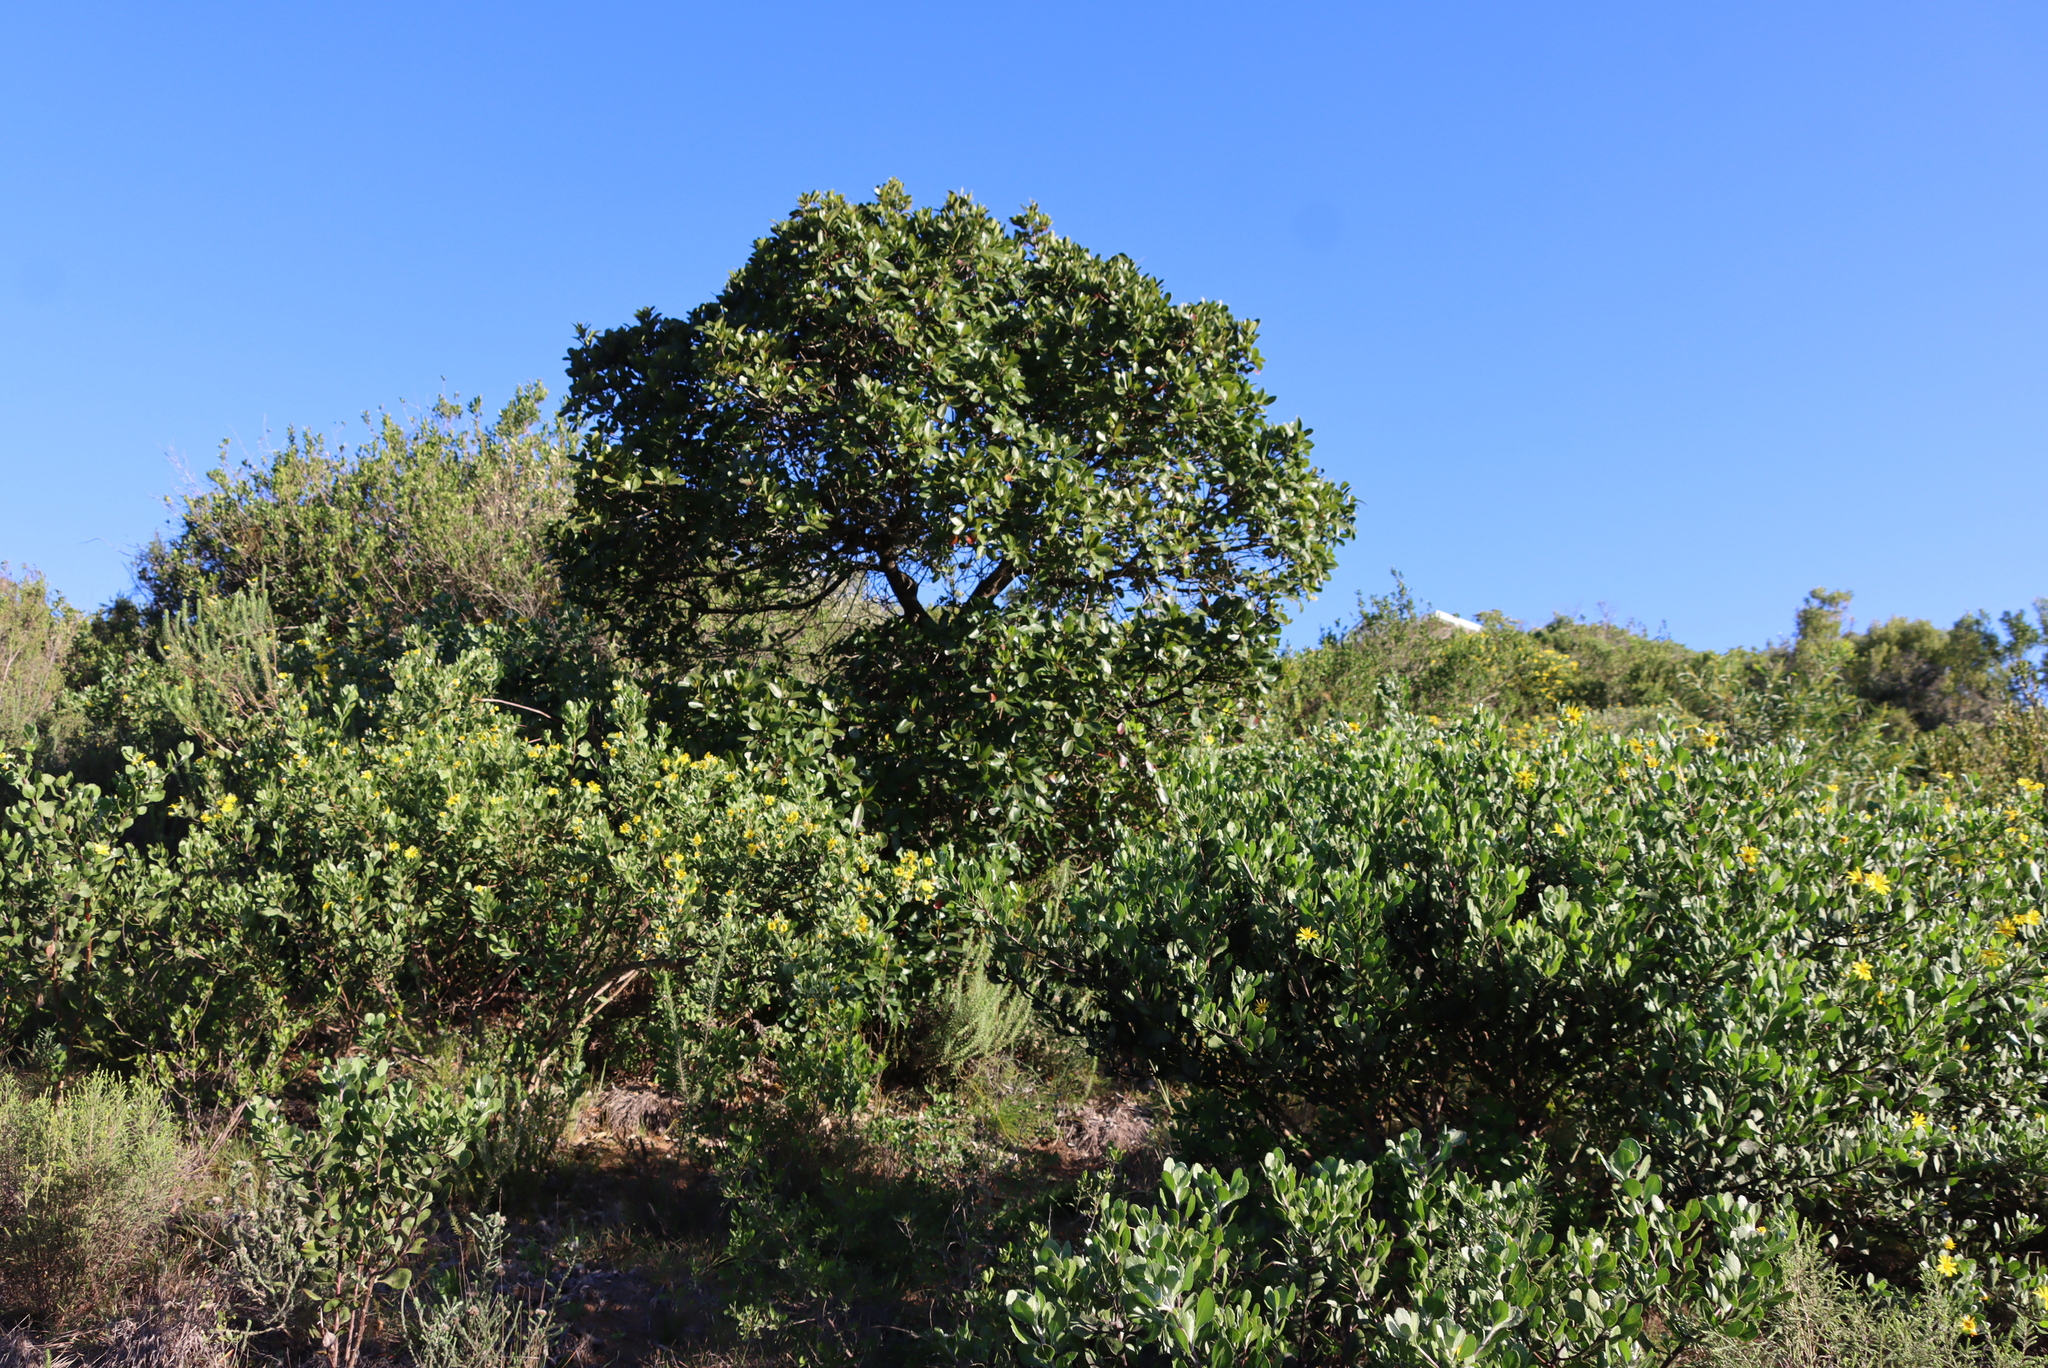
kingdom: Plantae
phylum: Tracheophyta
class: Magnoliopsida
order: Ericales
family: Sapotaceae
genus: Sideroxylon
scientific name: Sideroxylon inerme
